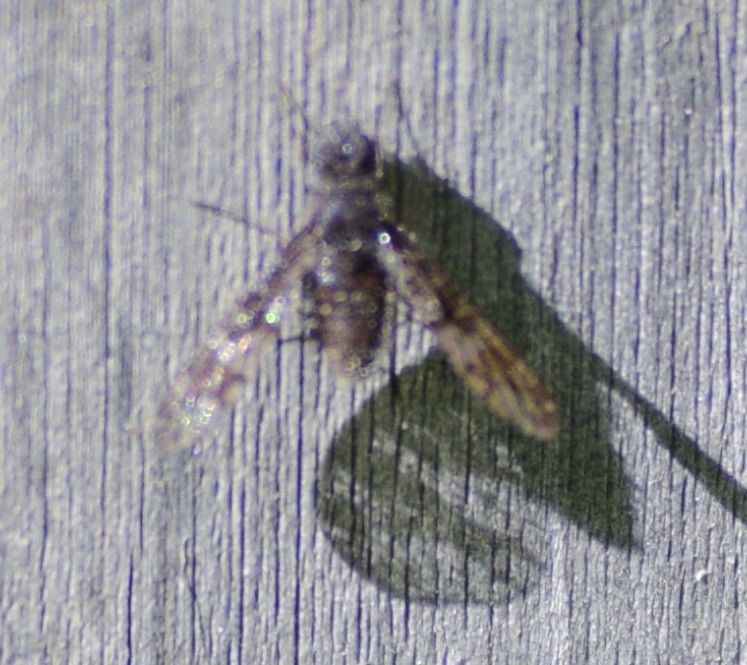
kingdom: Animalia
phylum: Arthropoda
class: Insecta
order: Diptera
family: Bombyliidae
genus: Anthrax
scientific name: Anthrax irroratus
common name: Spotted bee fly
